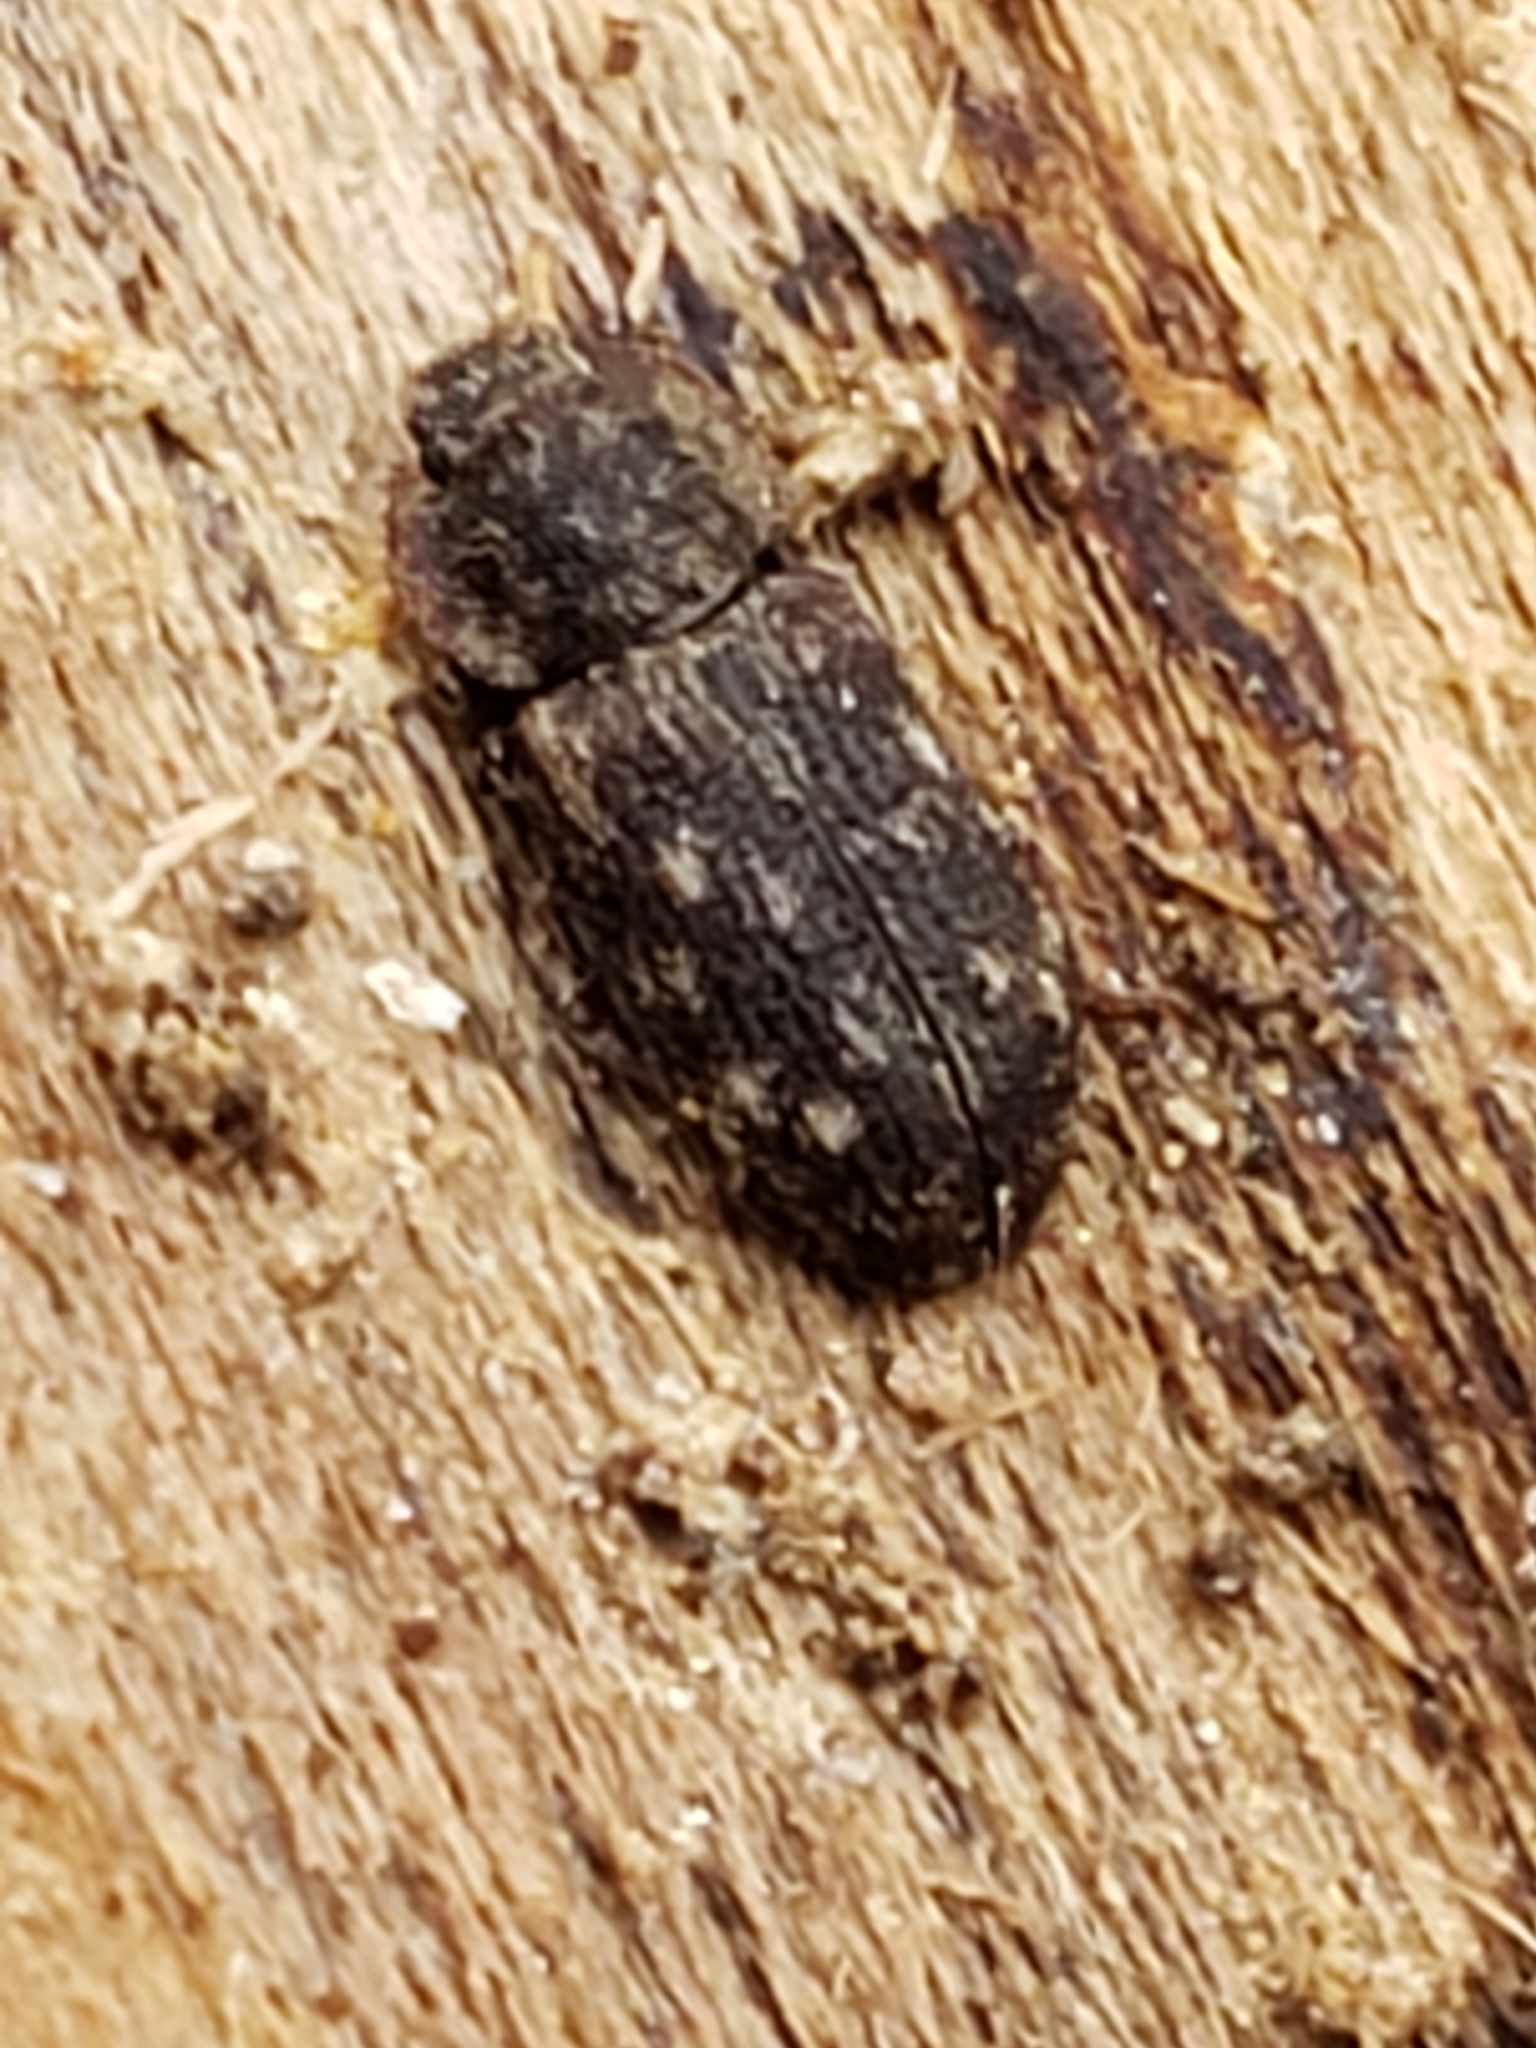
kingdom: Animalia
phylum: Arthropoda
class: Insecta
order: Coleoptera
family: Zopheridae
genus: Namunaria
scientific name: Namunaria guttulata
